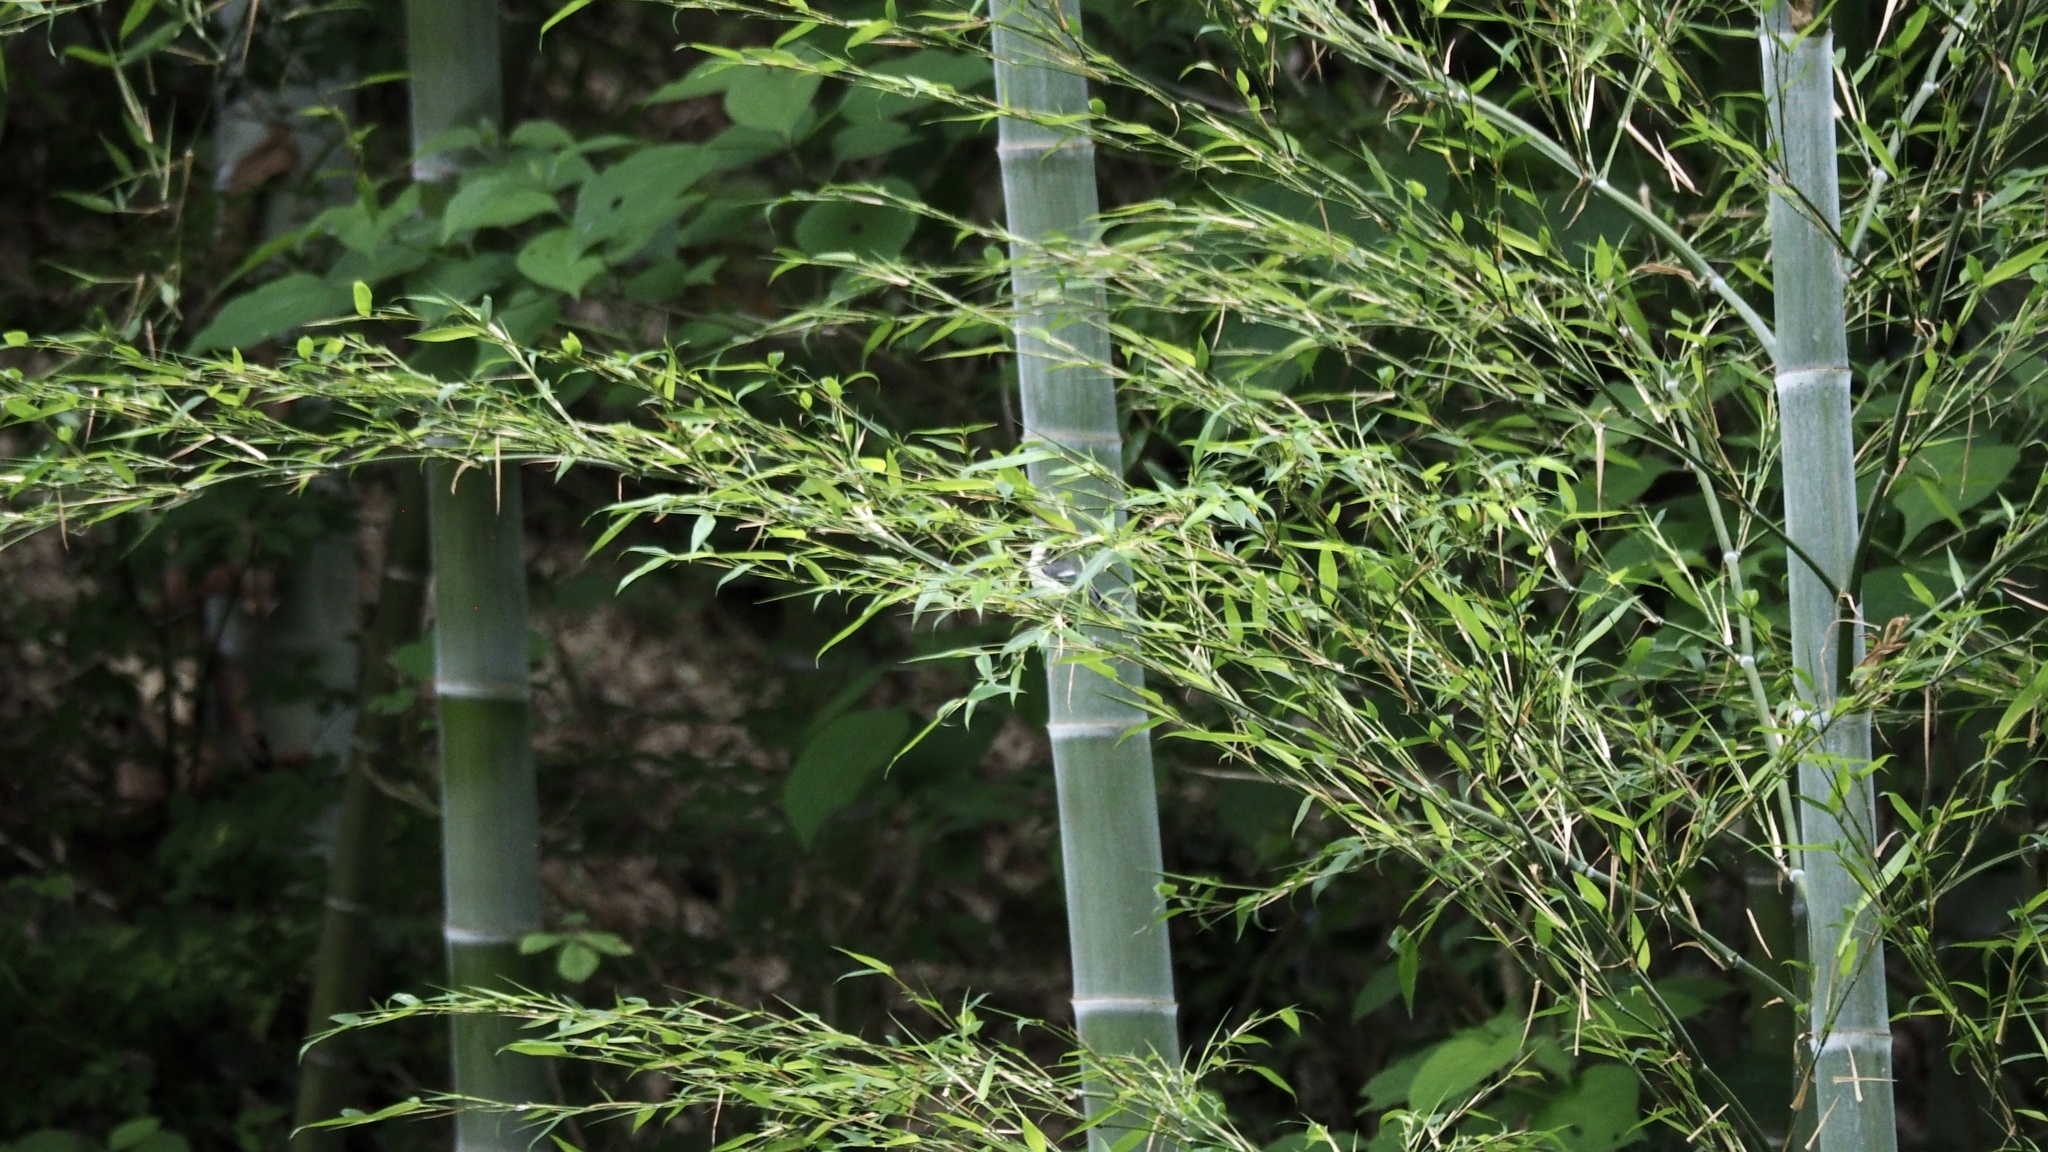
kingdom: Animalia
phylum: Chordata
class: Aves
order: Passeriformes
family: Paridae
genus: Parus
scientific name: Parus minor
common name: Japanese tit
